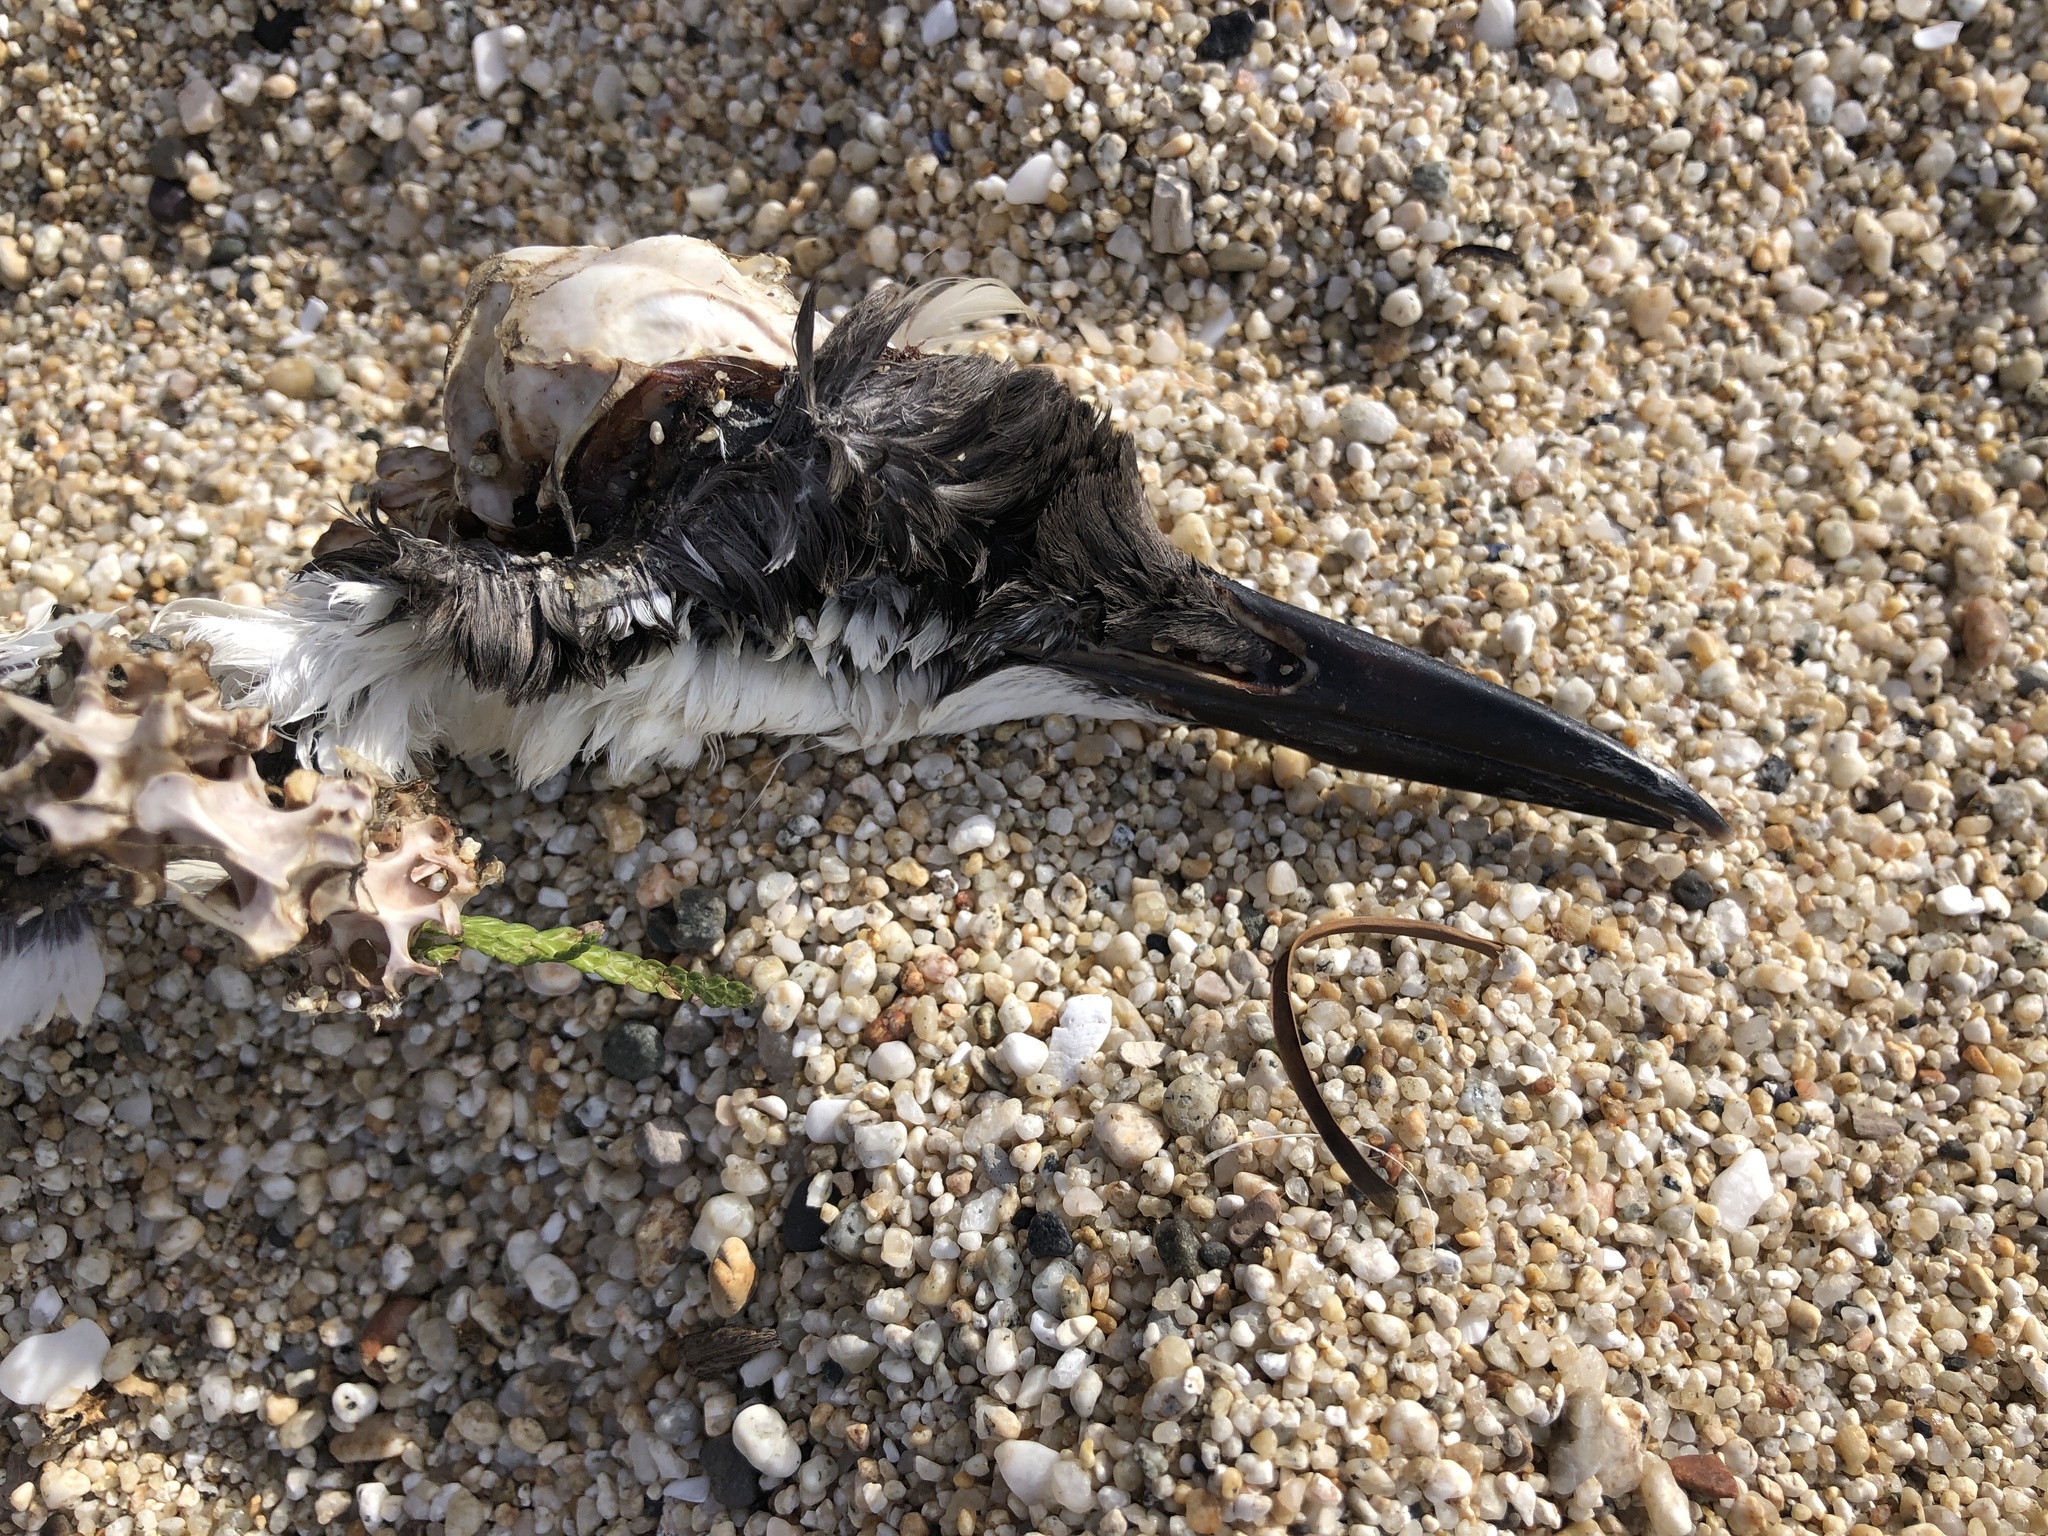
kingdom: Animalia
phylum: Chordata
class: Aves
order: Charadriiformes
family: Alcidae
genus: Uria
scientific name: Uria aalge
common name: Common murre
